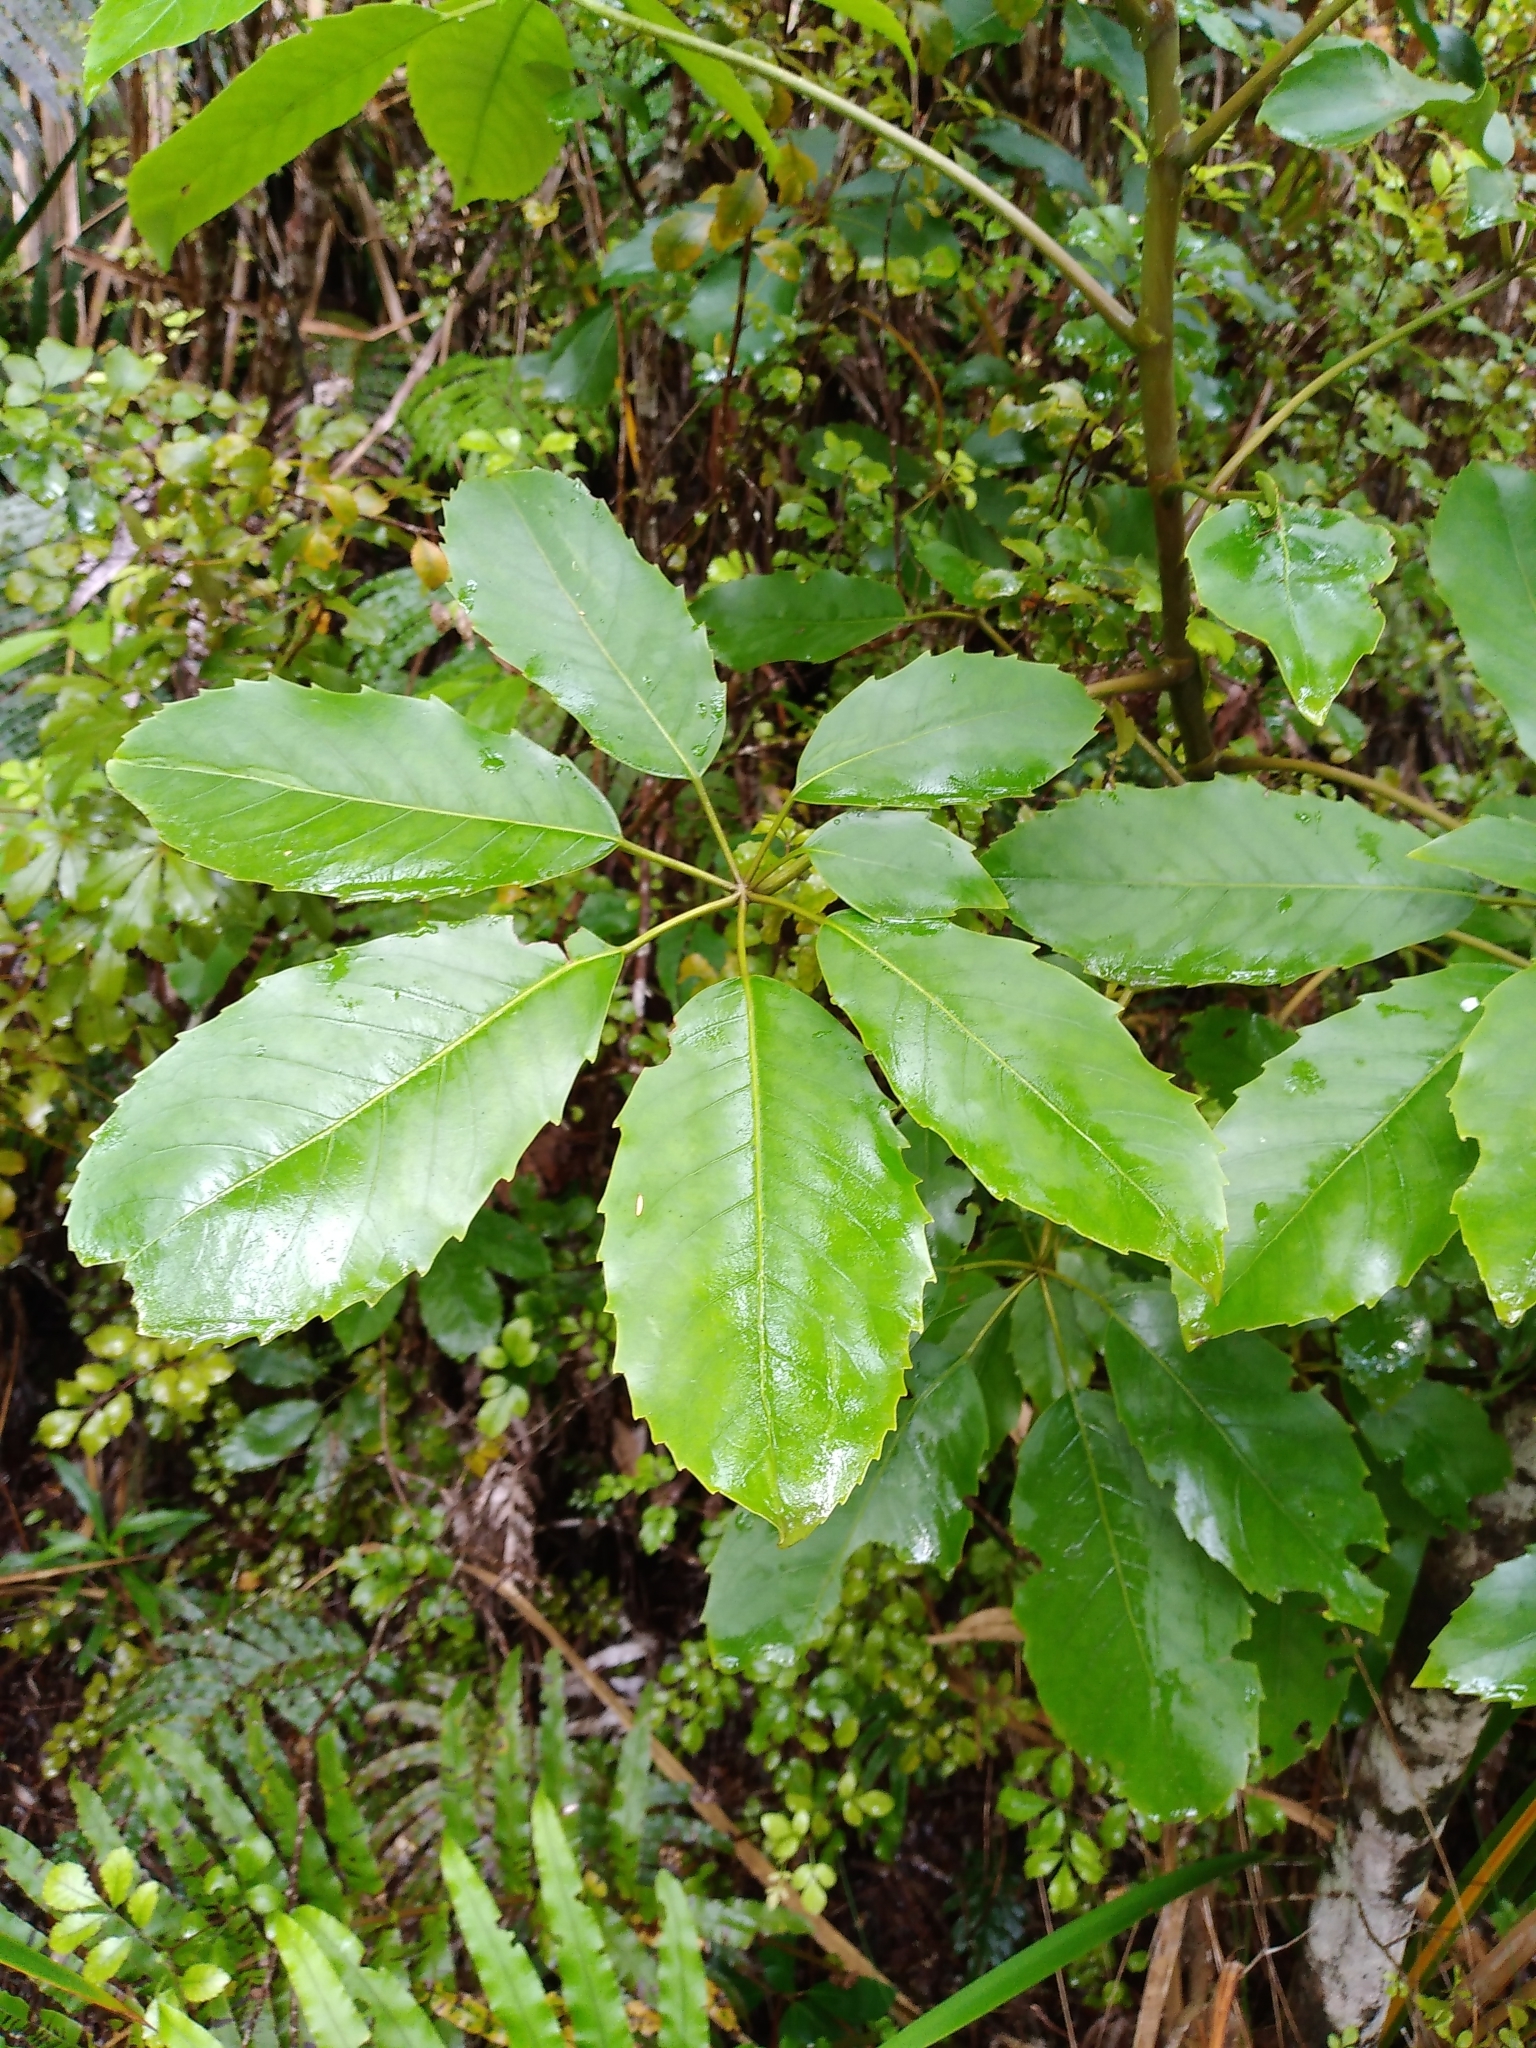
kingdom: Plantae
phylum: Tracheophyta
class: Magnoliopsida
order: Apiales
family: Araliaceae
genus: Neopanax
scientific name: Neopanax arboreus
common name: Five-fingers
